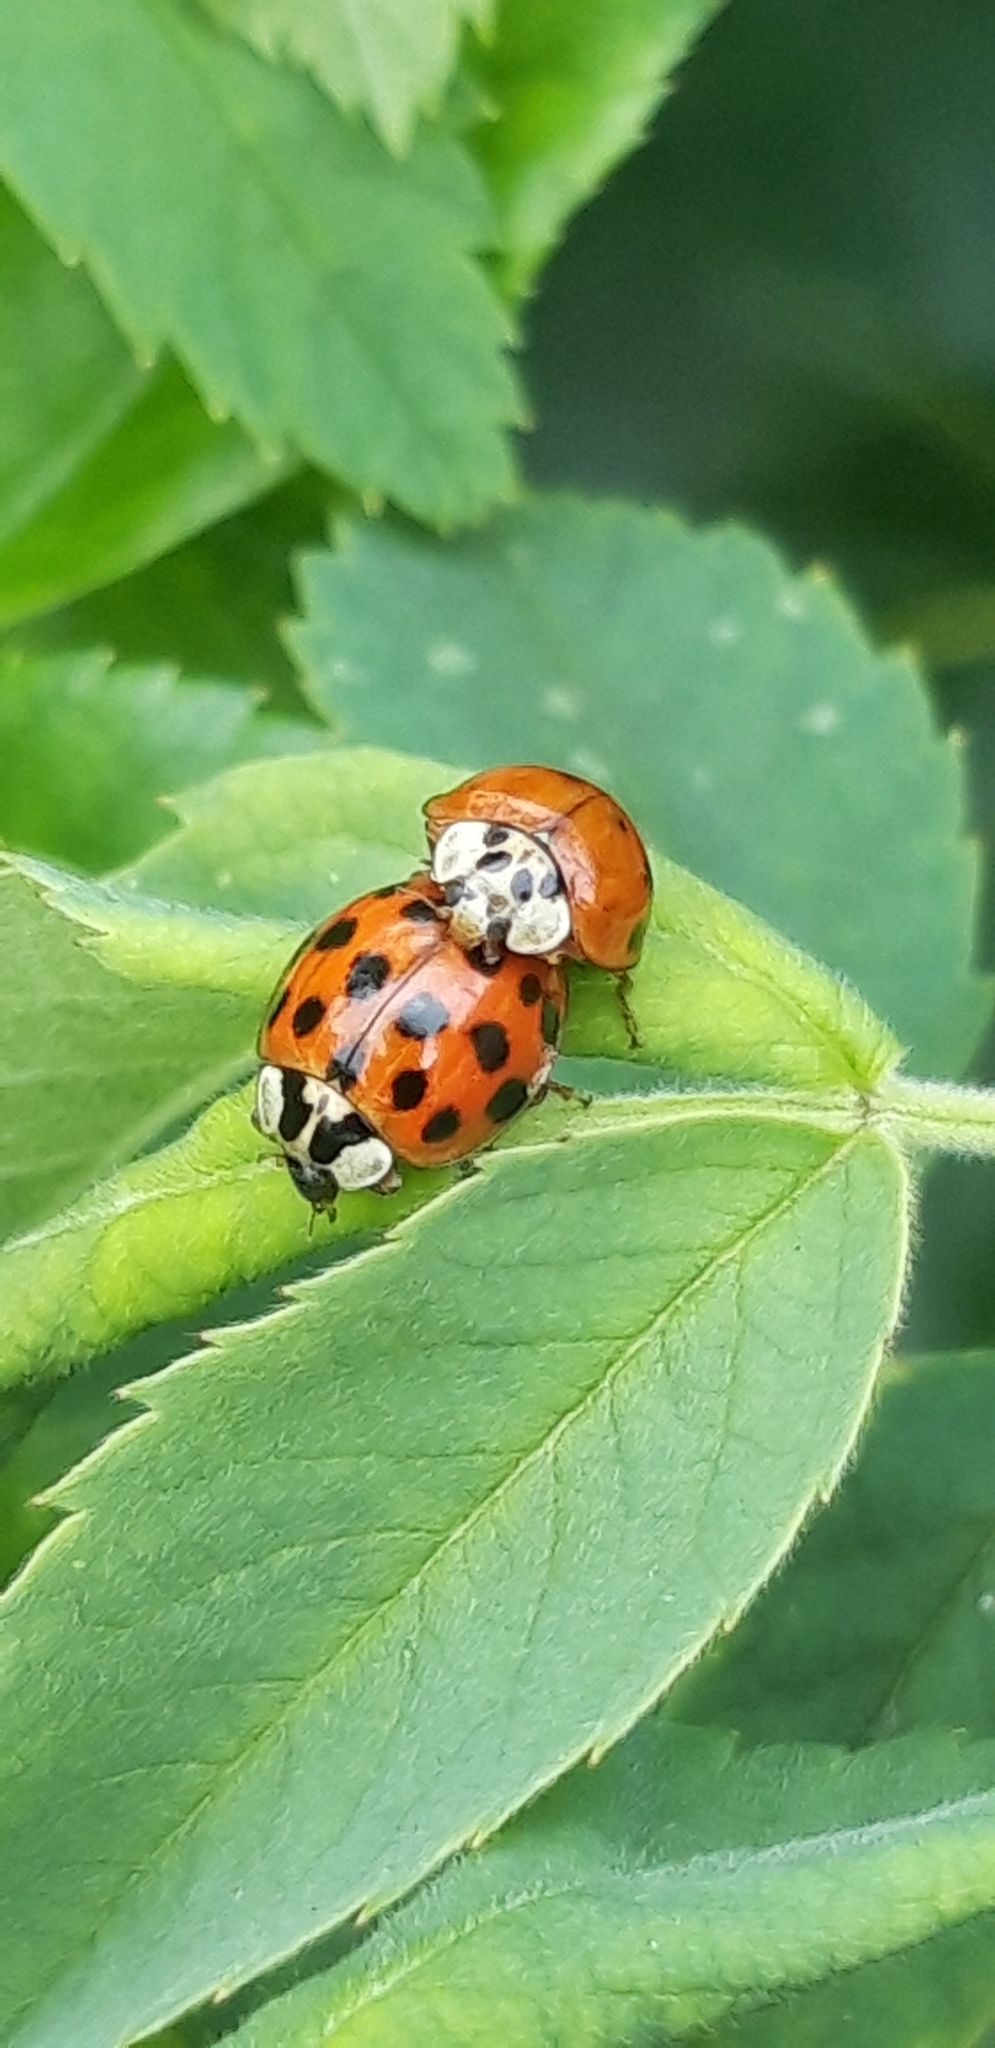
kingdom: Animalia
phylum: Arthropoda
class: Insecta
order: Coleoptera
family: Coccinellidae
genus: Harmonia
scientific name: Harmonia axyridis
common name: Harlequin ladybird
